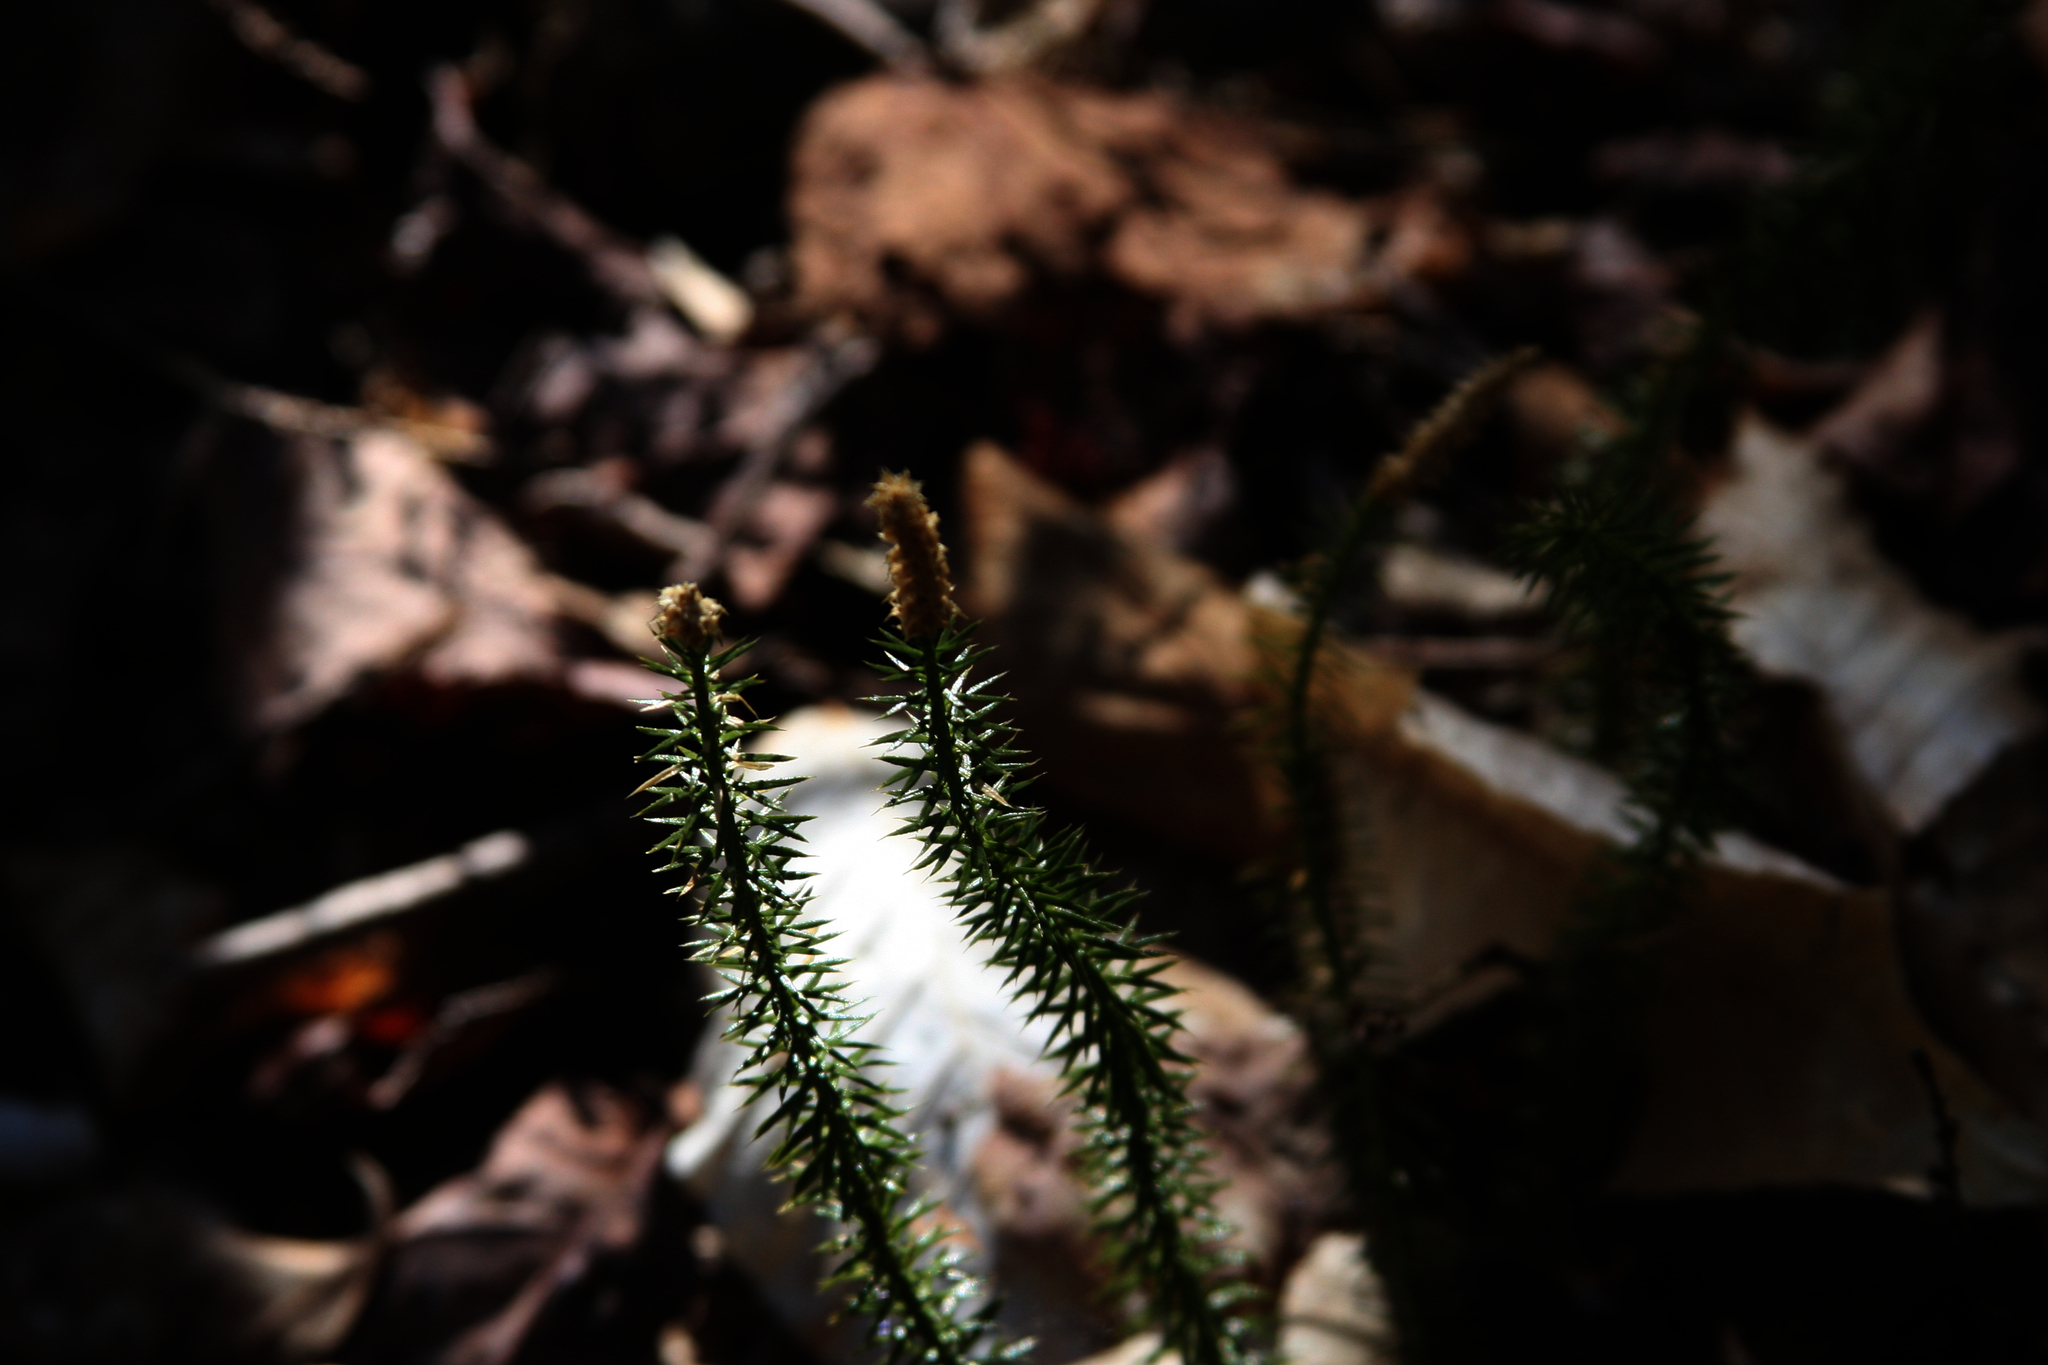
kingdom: Plantae
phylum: Tracheophyta
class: Lycopodiopsida
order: Lycopodiales
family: Lycopodiaceae
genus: Spinulum
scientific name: Spinulum annotinum
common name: Interrupted club-moss
